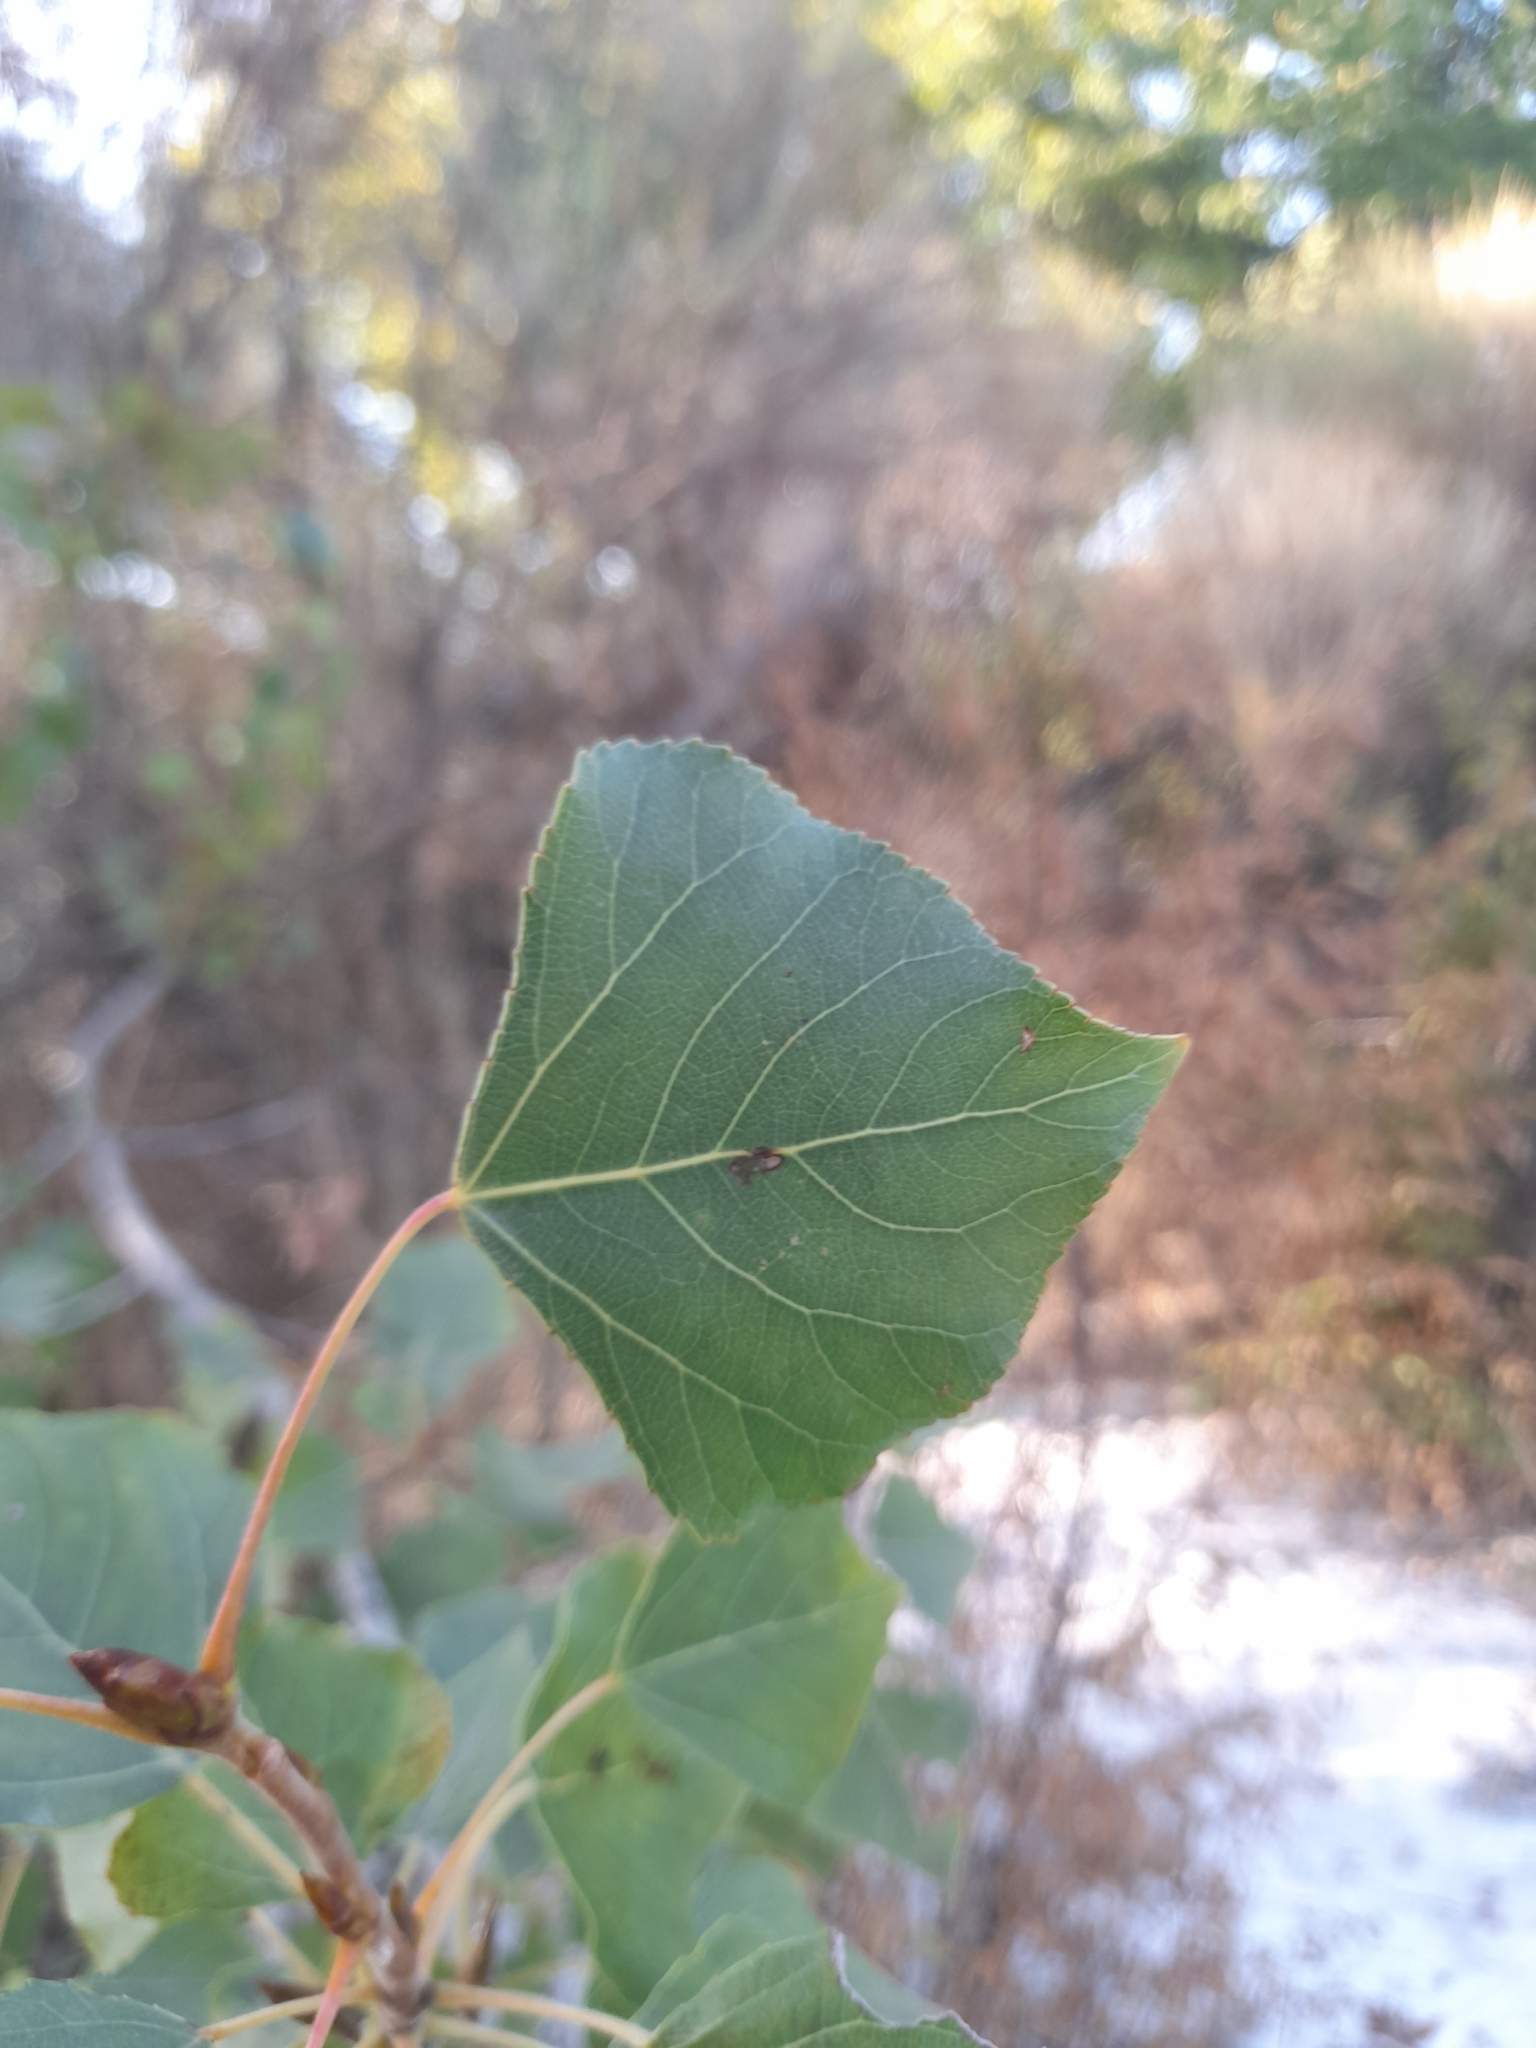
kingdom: Plantae
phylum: Tracheophyta
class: Magnoliopsida
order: Malpighiales
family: Salicaceae
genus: Populus
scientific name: Populus nigra
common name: Black poplar
